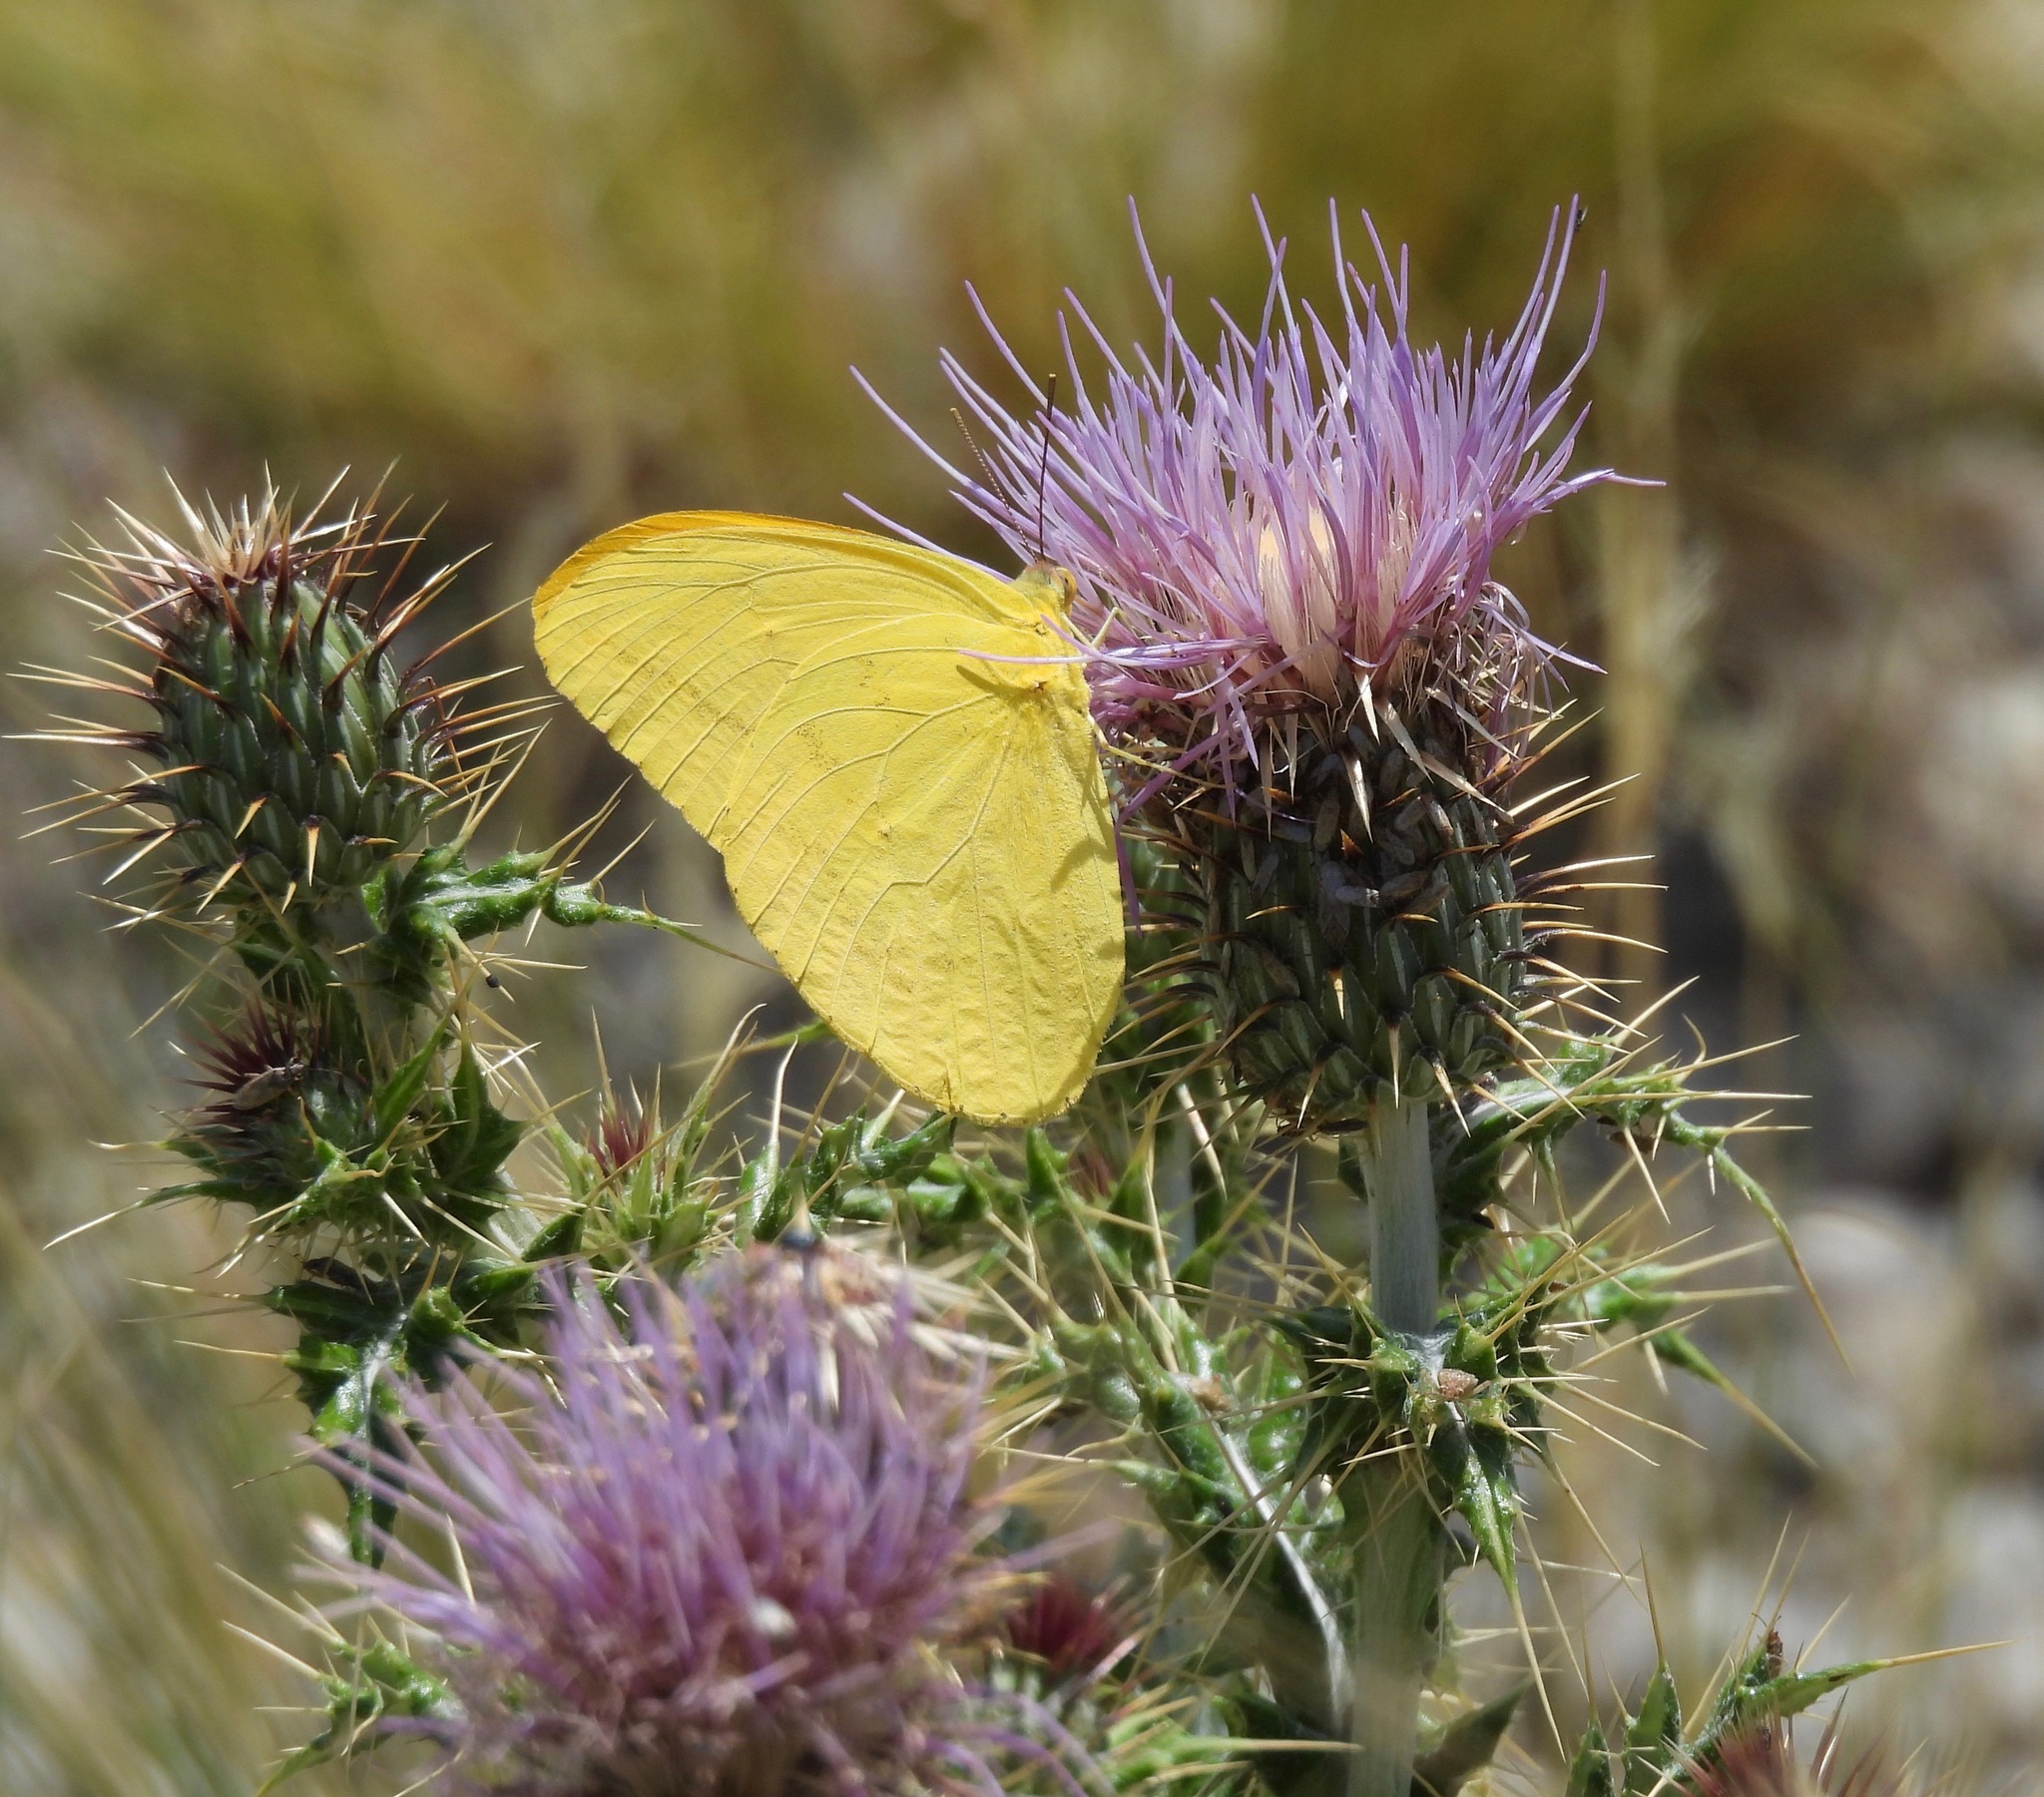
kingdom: Animalia
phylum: Arthropoda
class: Insecta
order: Lepidoptera
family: Pieridae
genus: Phoebis
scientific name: Phoebis agarithe
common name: Large orange sulphur
